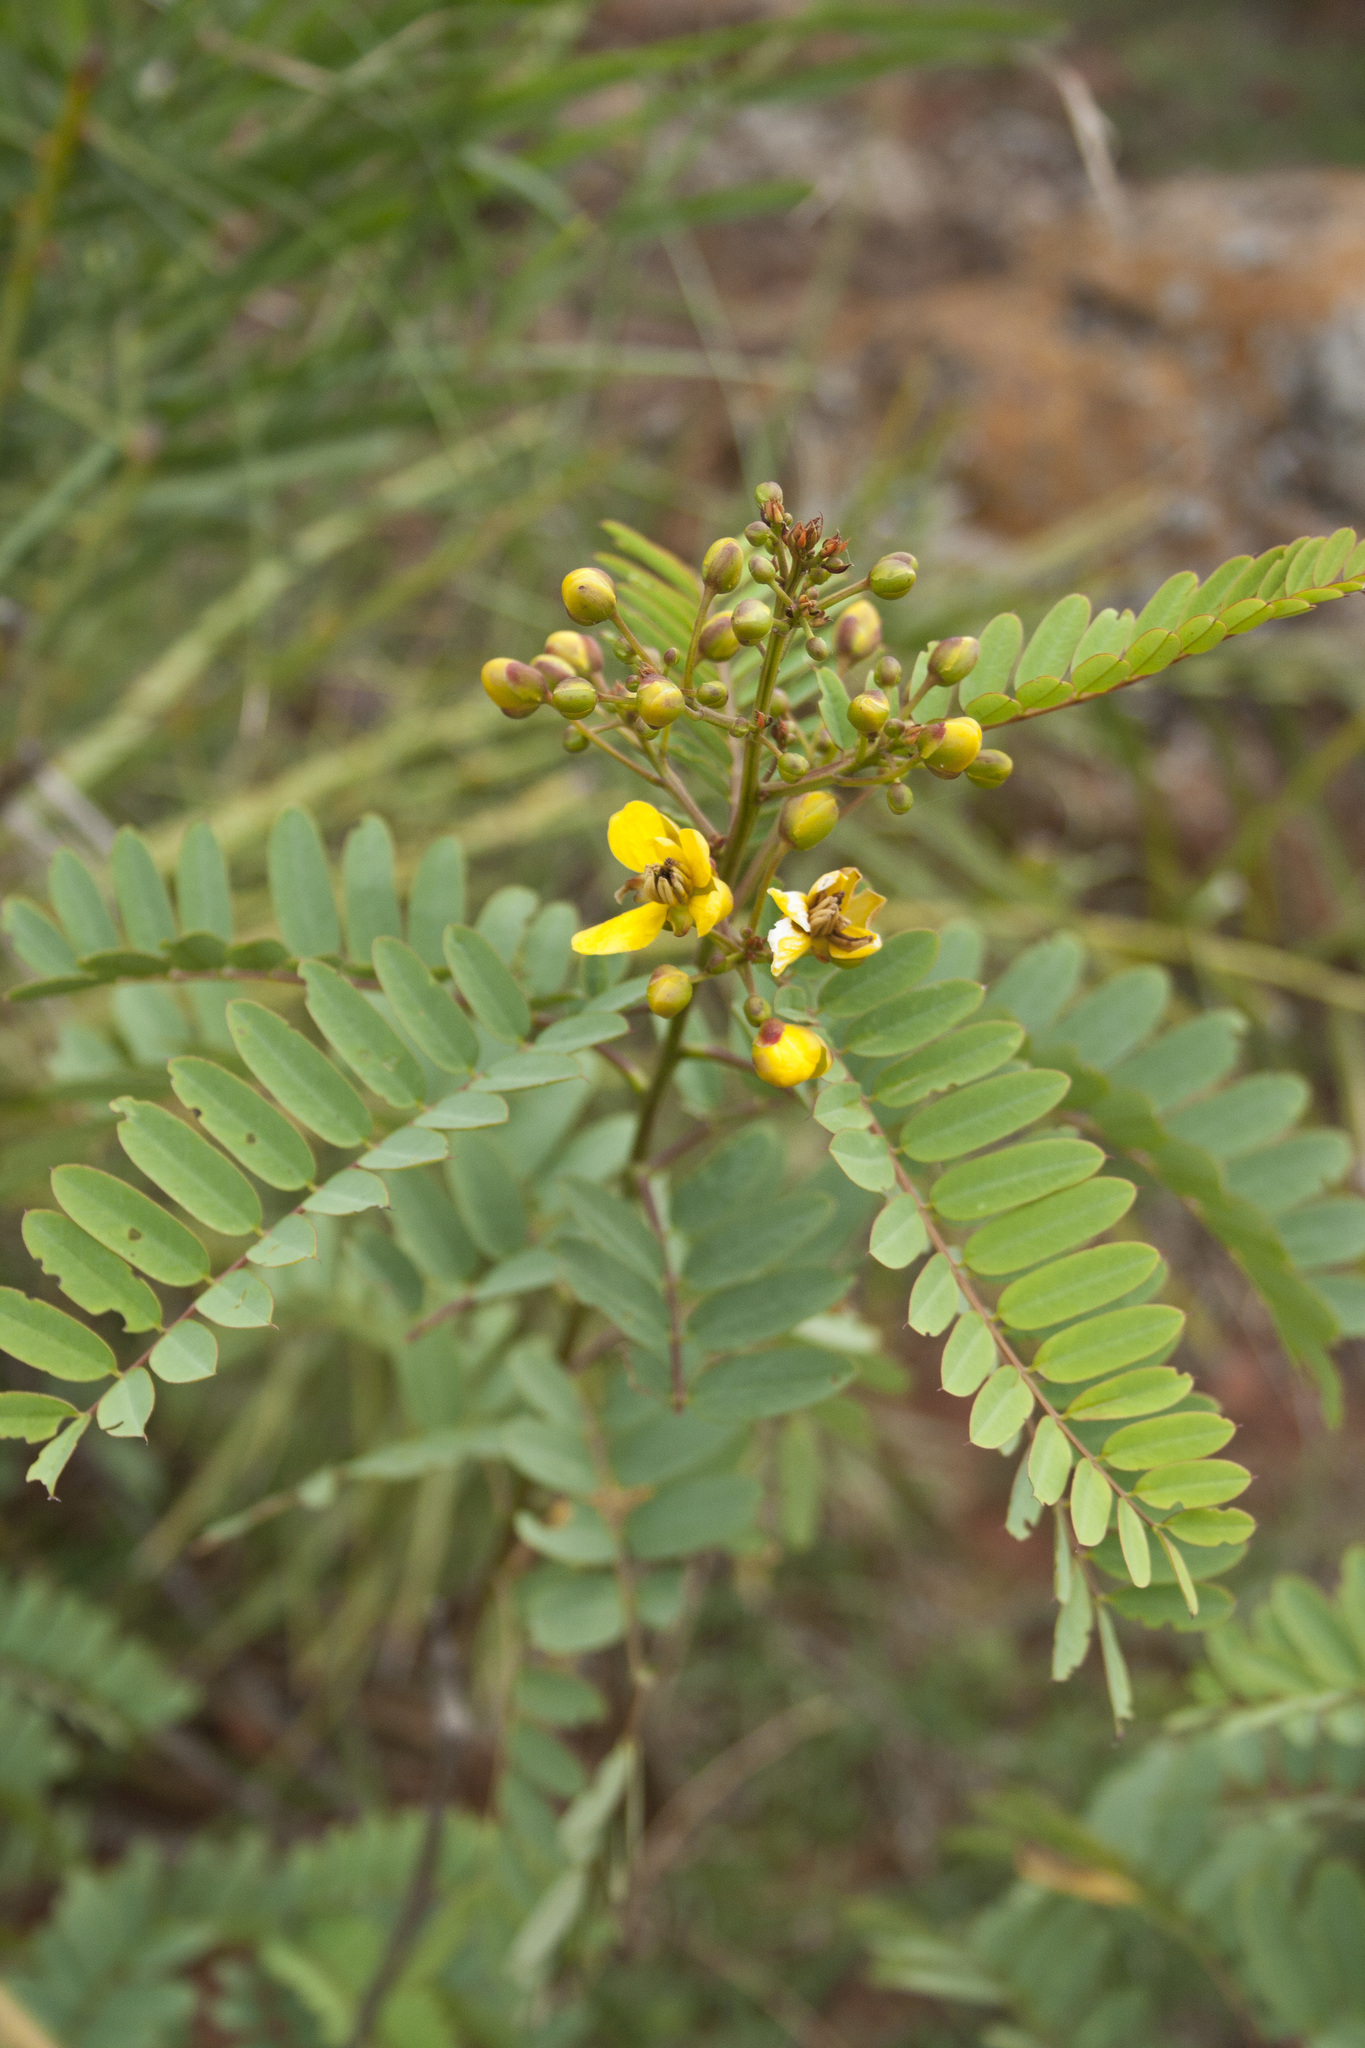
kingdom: Plantae
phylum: Tracheophyta
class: Magnoliopsida
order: Fabales
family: Fabaceae
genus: Senna
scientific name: Senna montana
